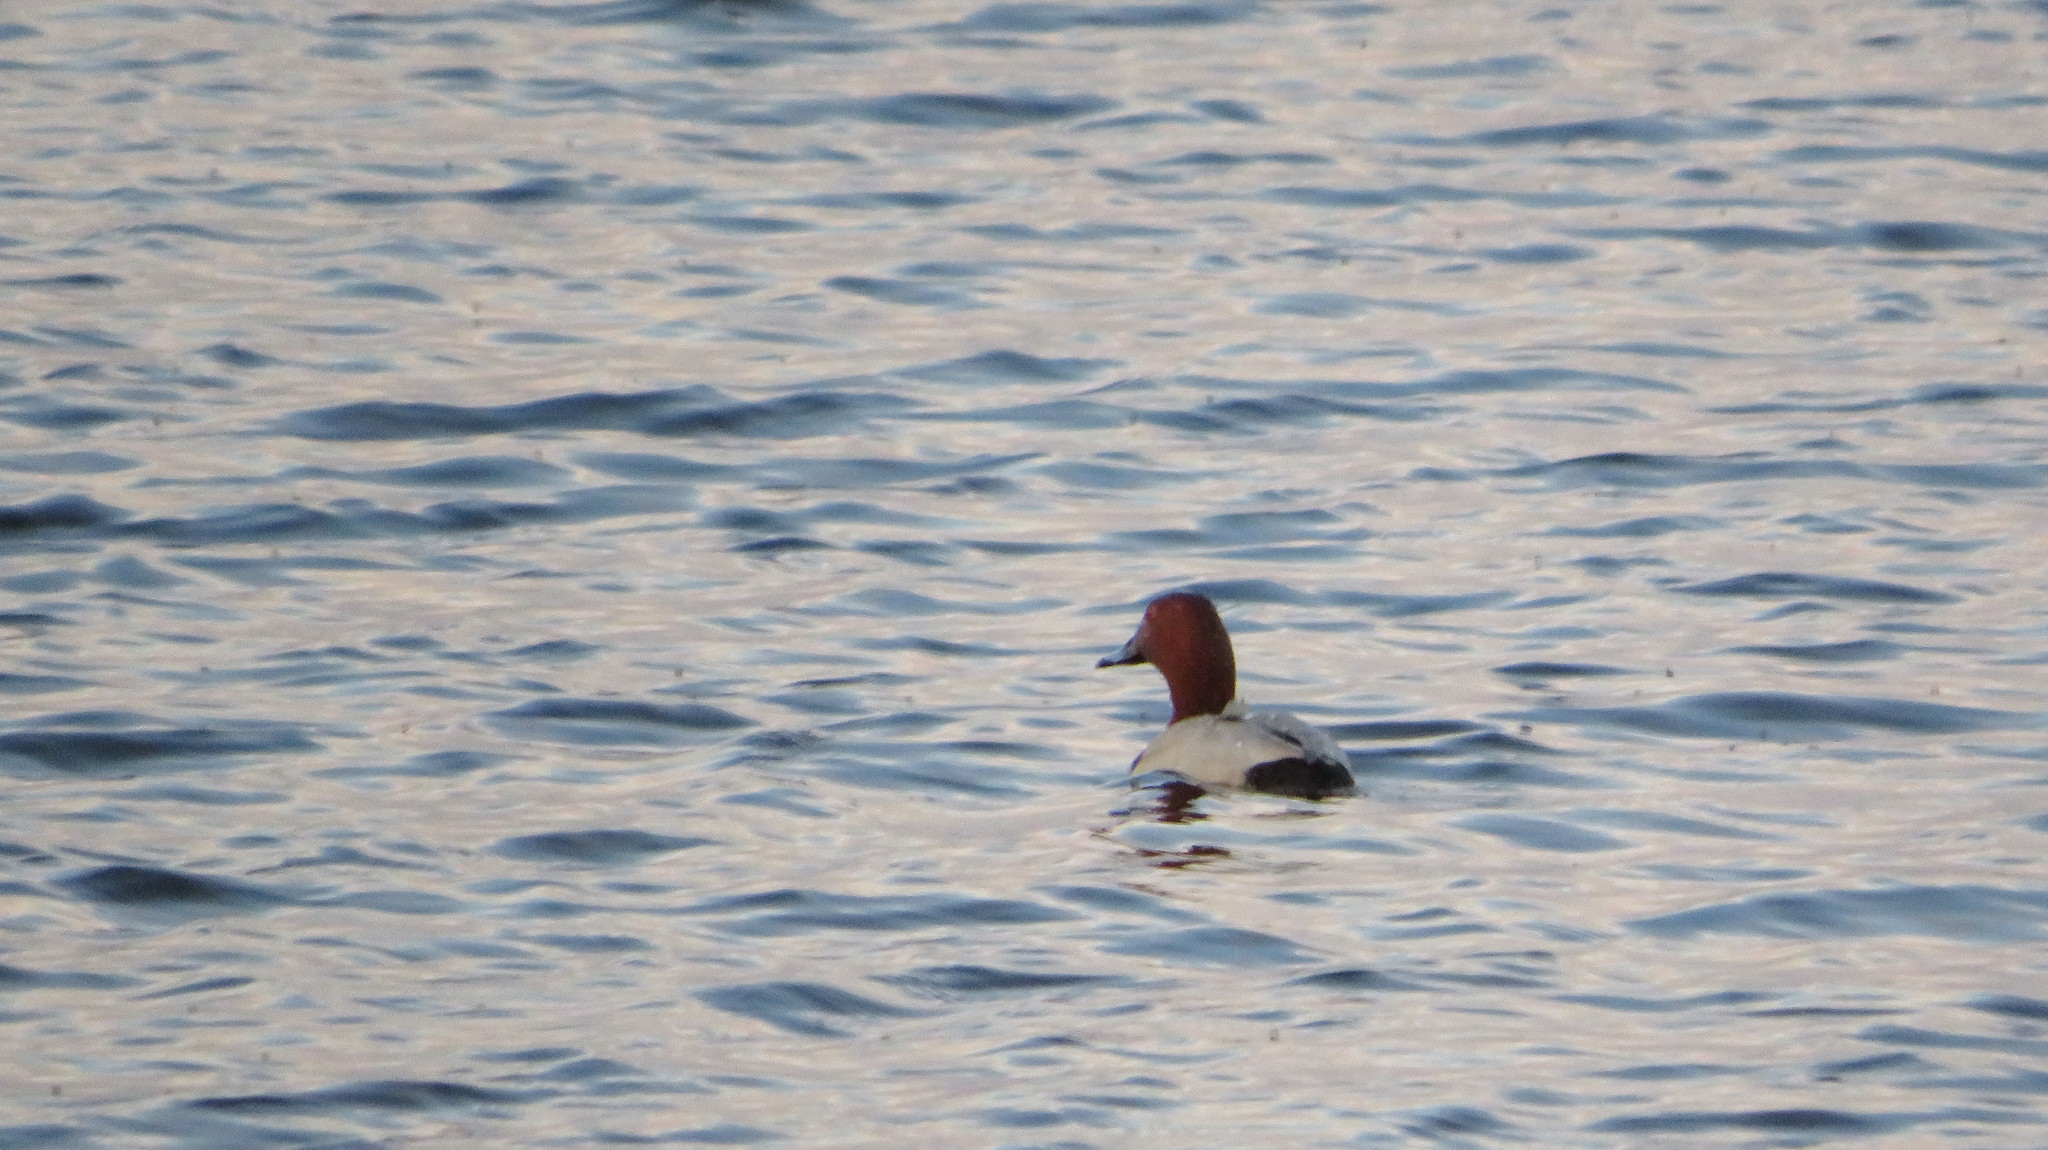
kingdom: Animalia
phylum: Chordata
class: Aves
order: Anseriformes
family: Anatidae
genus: Aythya
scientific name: Aythya ferina
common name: Common pochard
